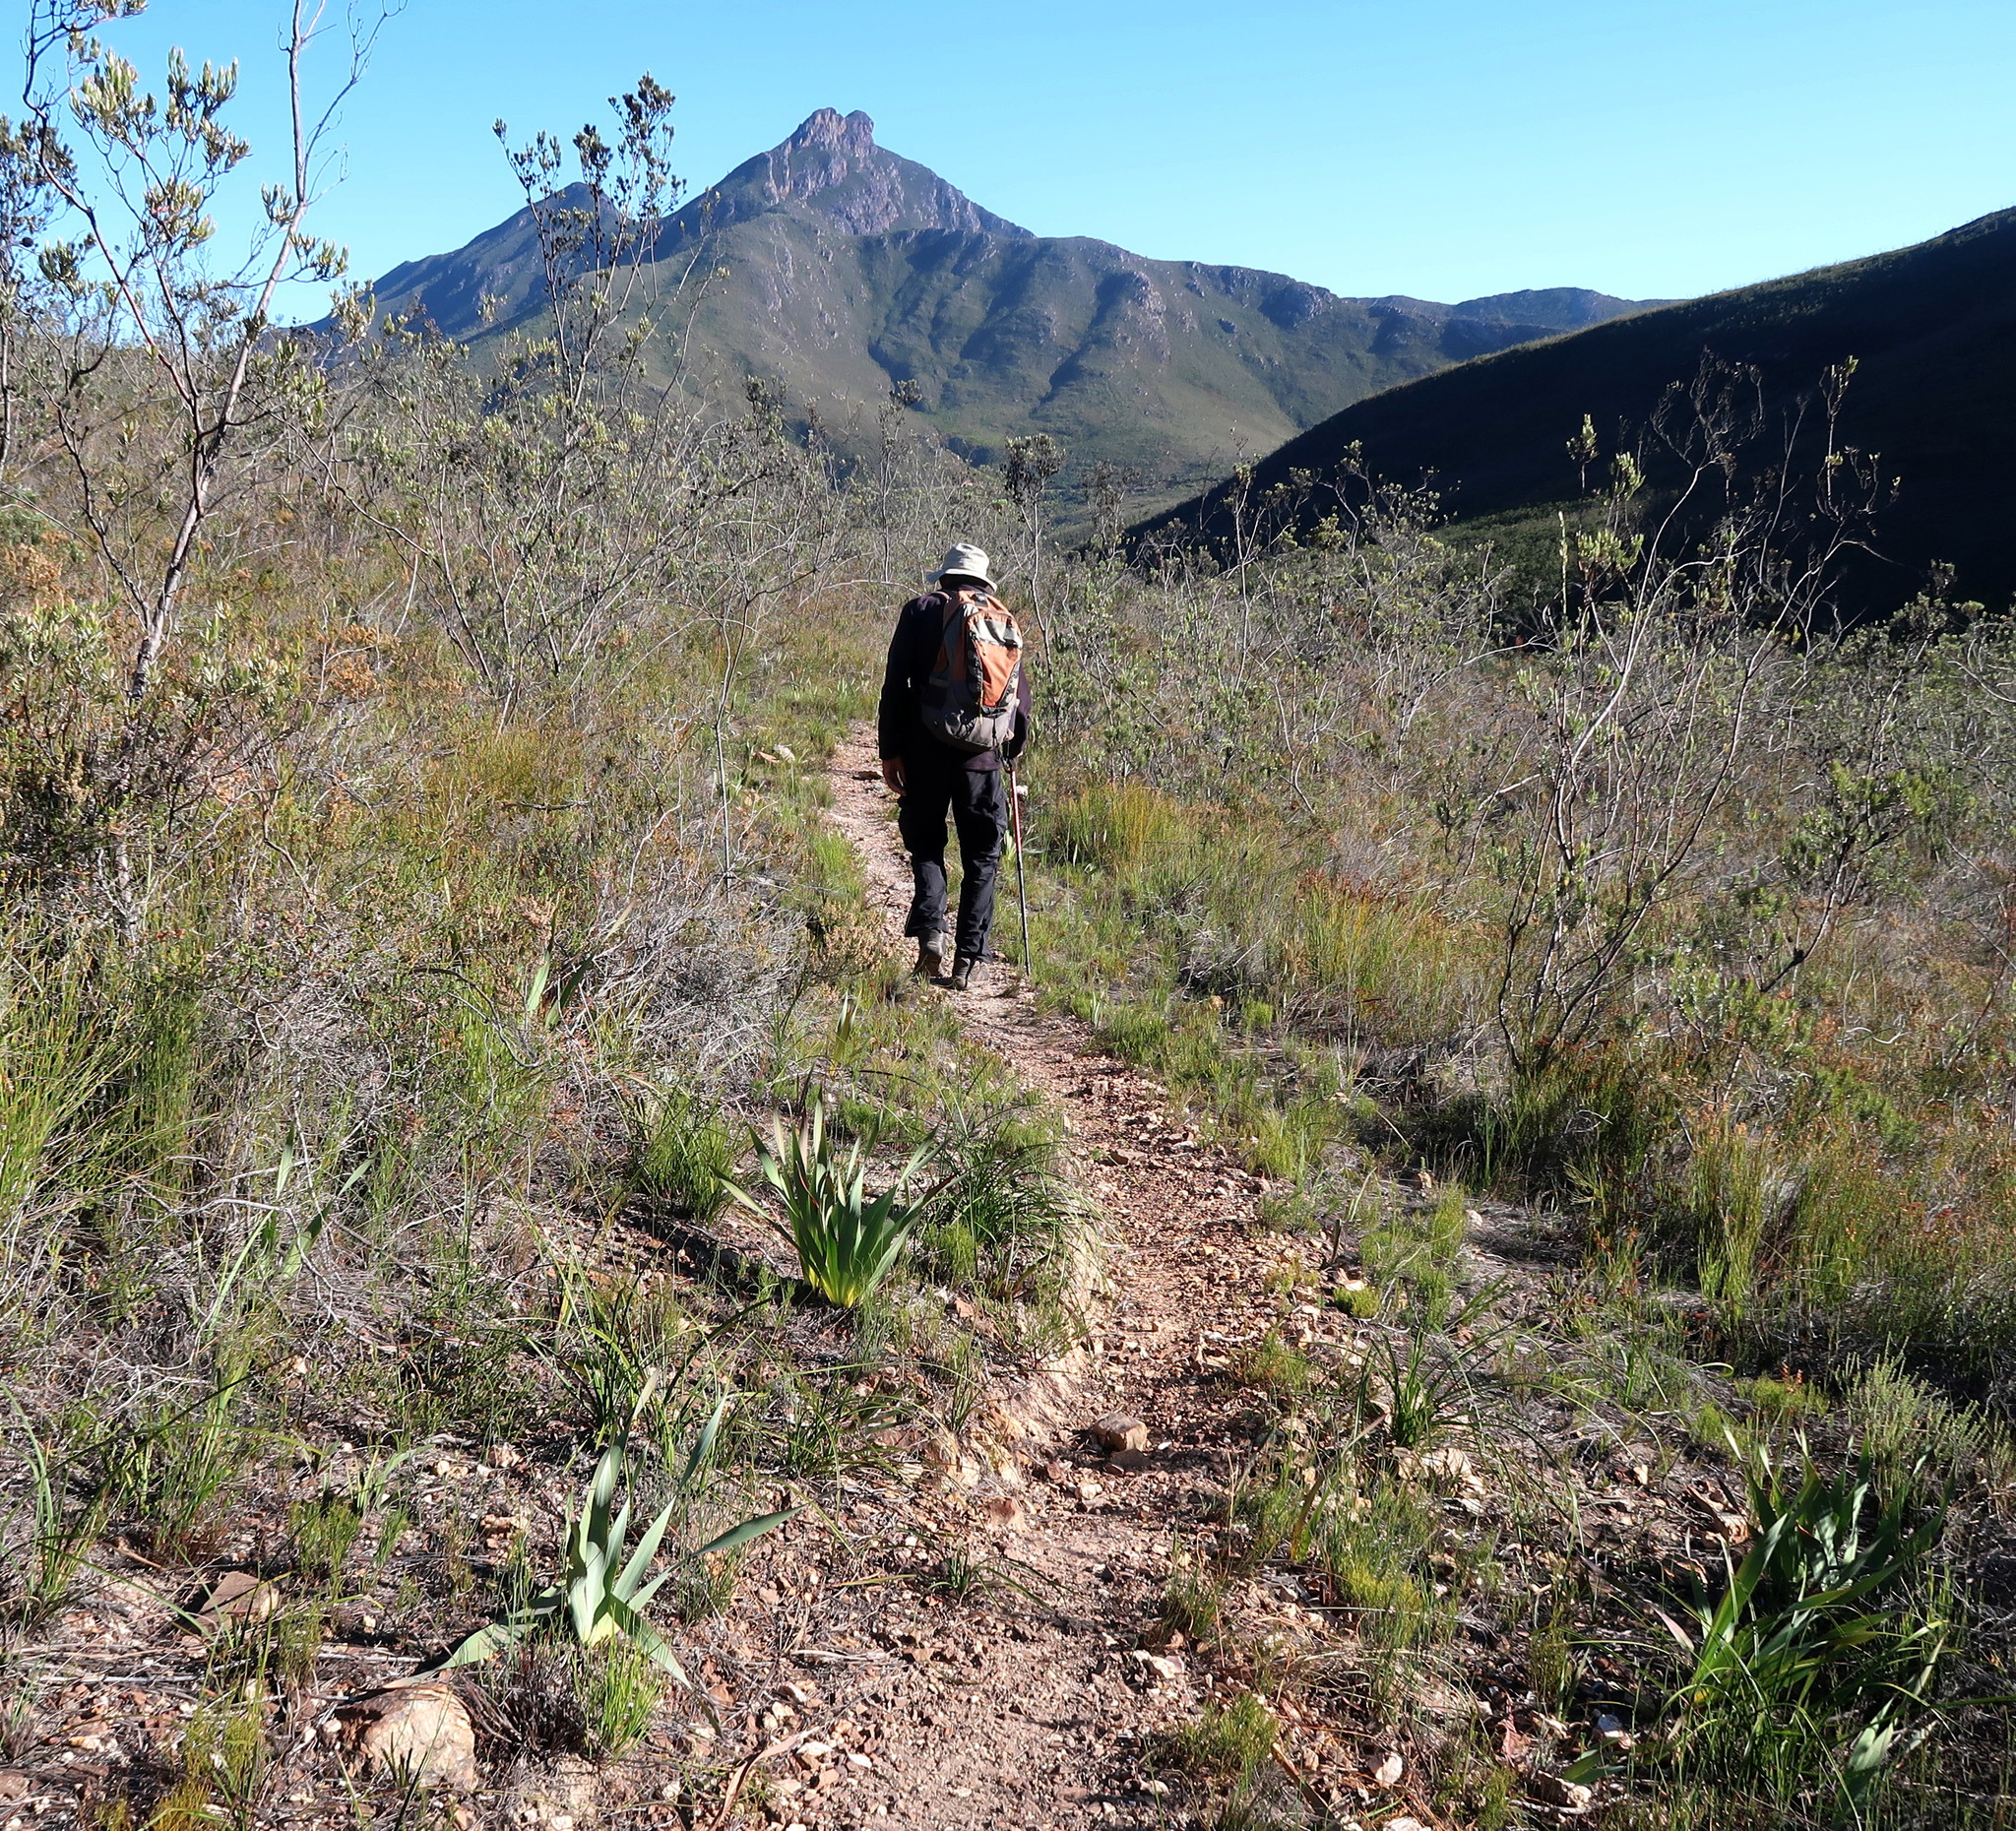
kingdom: Plantae
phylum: Tracheophyta
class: Liliopsida
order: Asparagales
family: Iridaceae
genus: Watsonia
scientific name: Watsonia fourcadei
